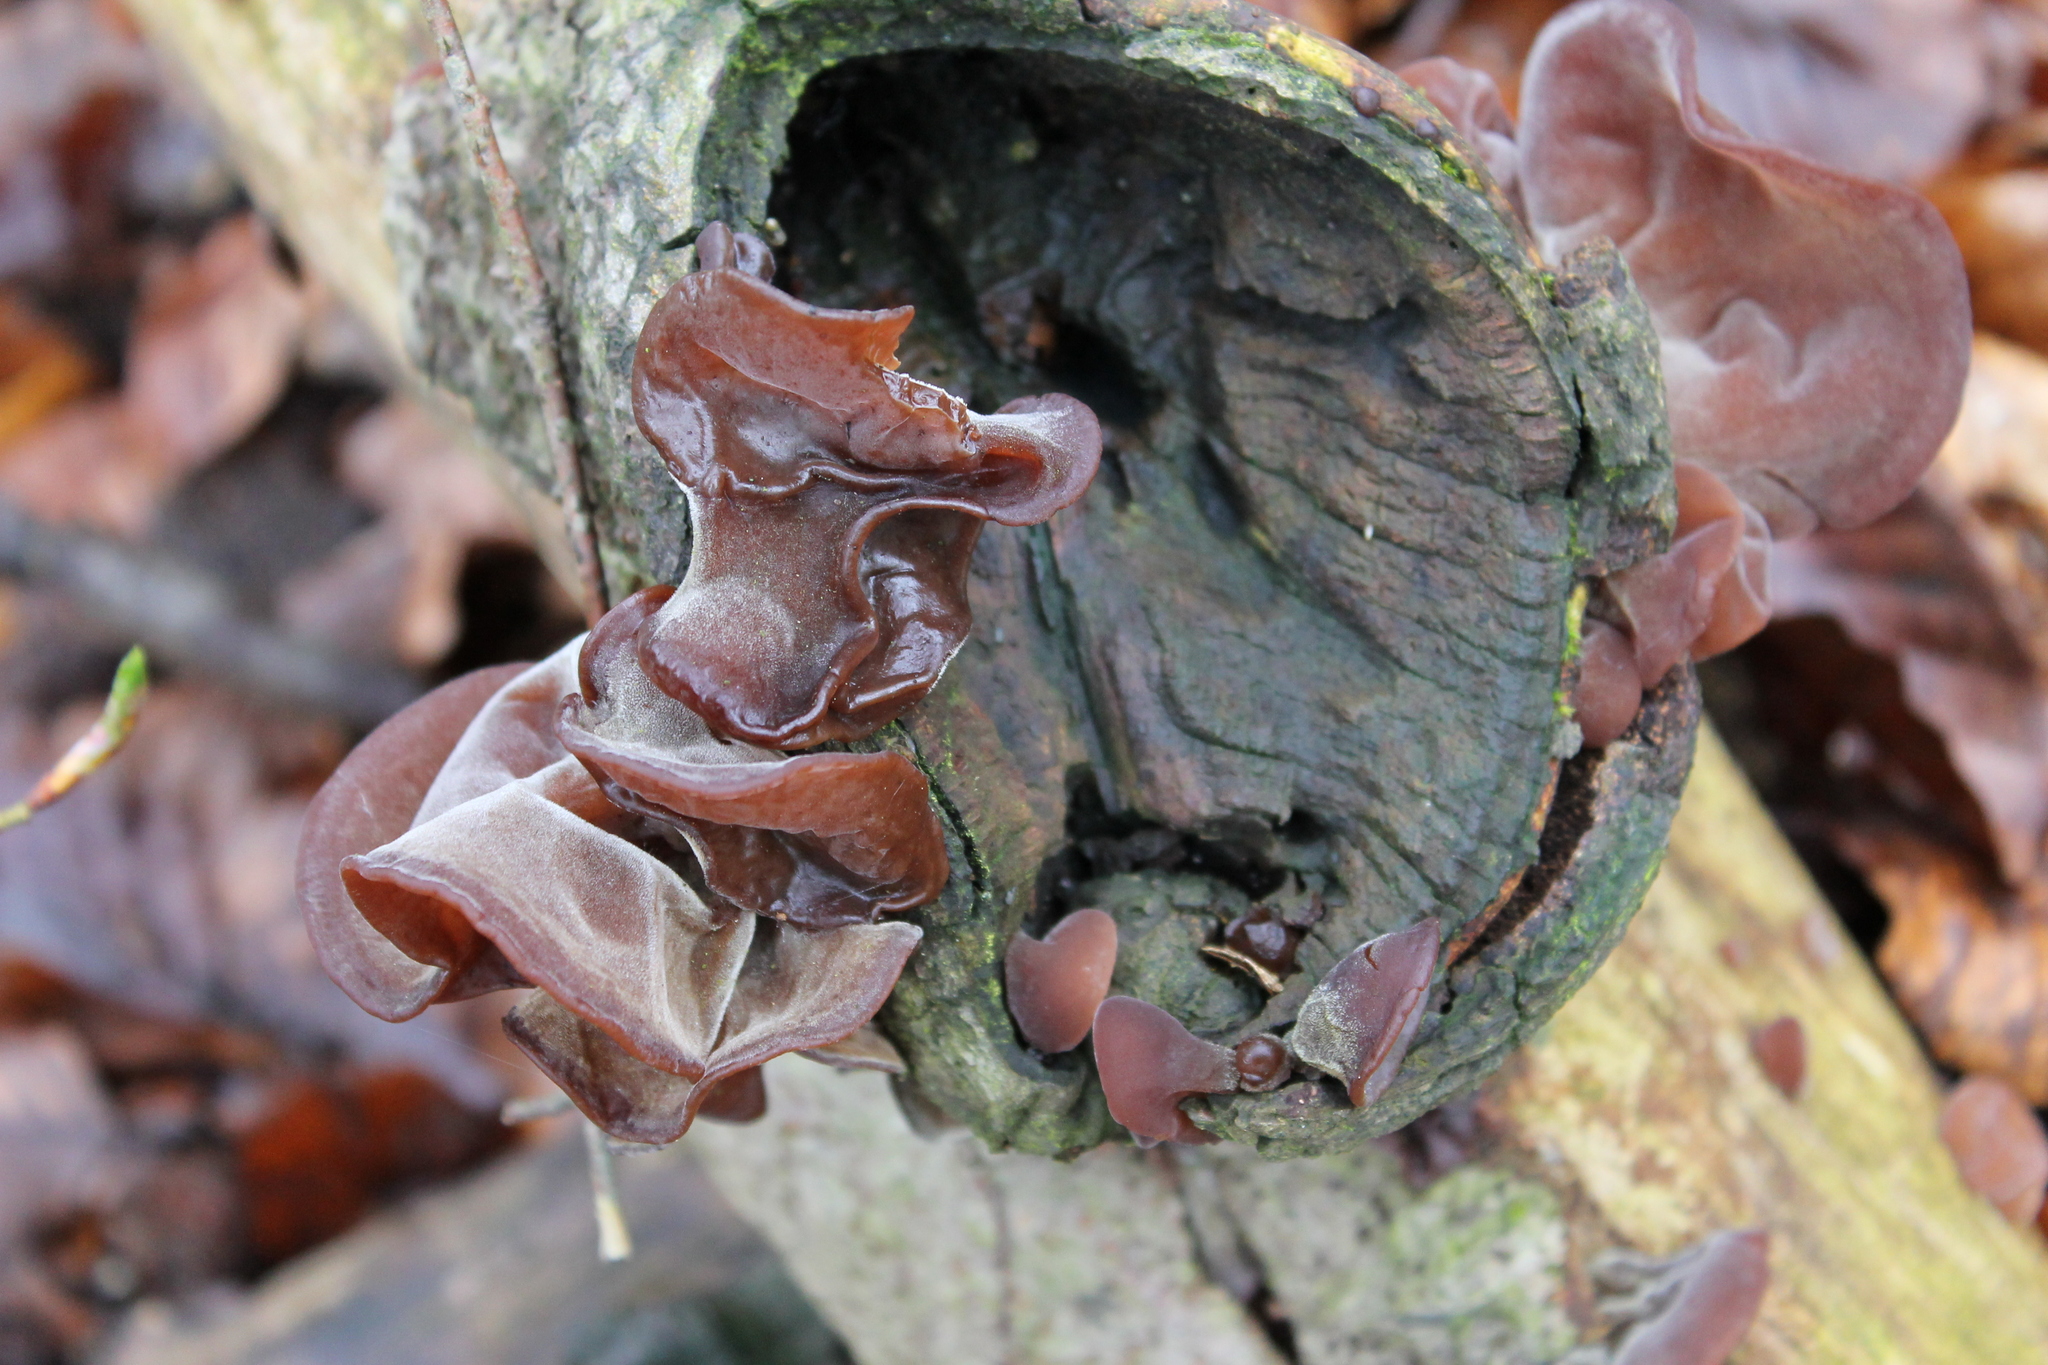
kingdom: Fungi
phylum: Basidiomycota
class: Agaricomycetes
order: Auriculariales
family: Auriculariaceae
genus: Auricularia
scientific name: Auricularia auricula-judae
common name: Jelly ear
